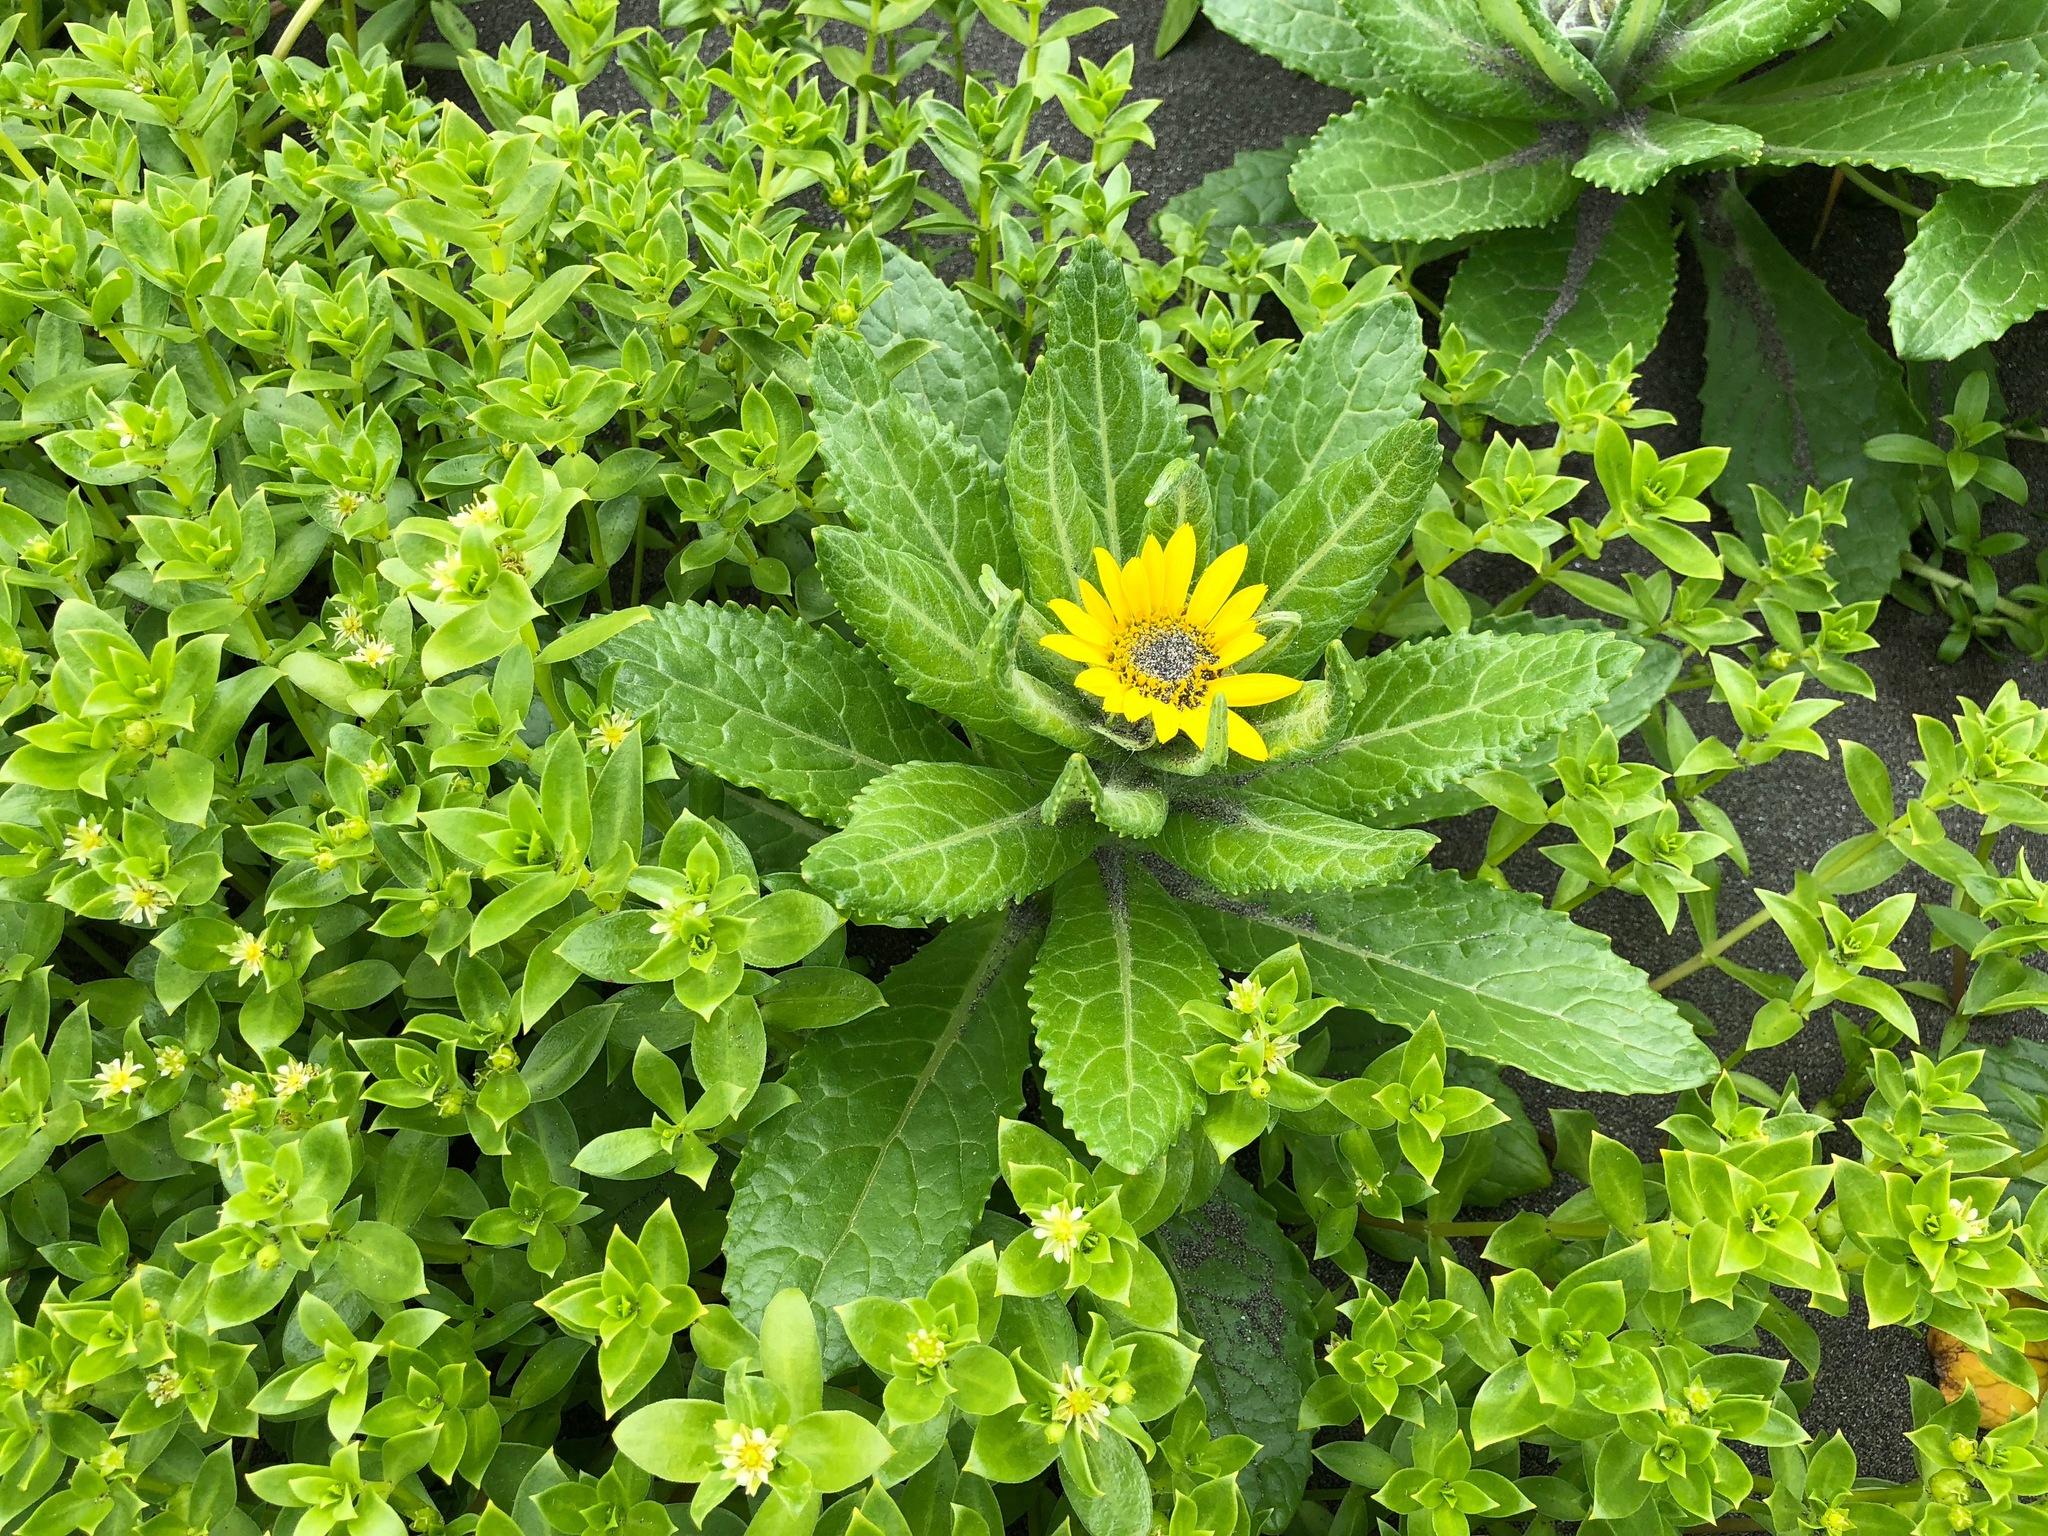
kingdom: Plantae
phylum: Tracheophyta
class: Magnoliopsida
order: Asterales
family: Asteraceae
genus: Jacobaea
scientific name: Jacobaea pseudoarnica
